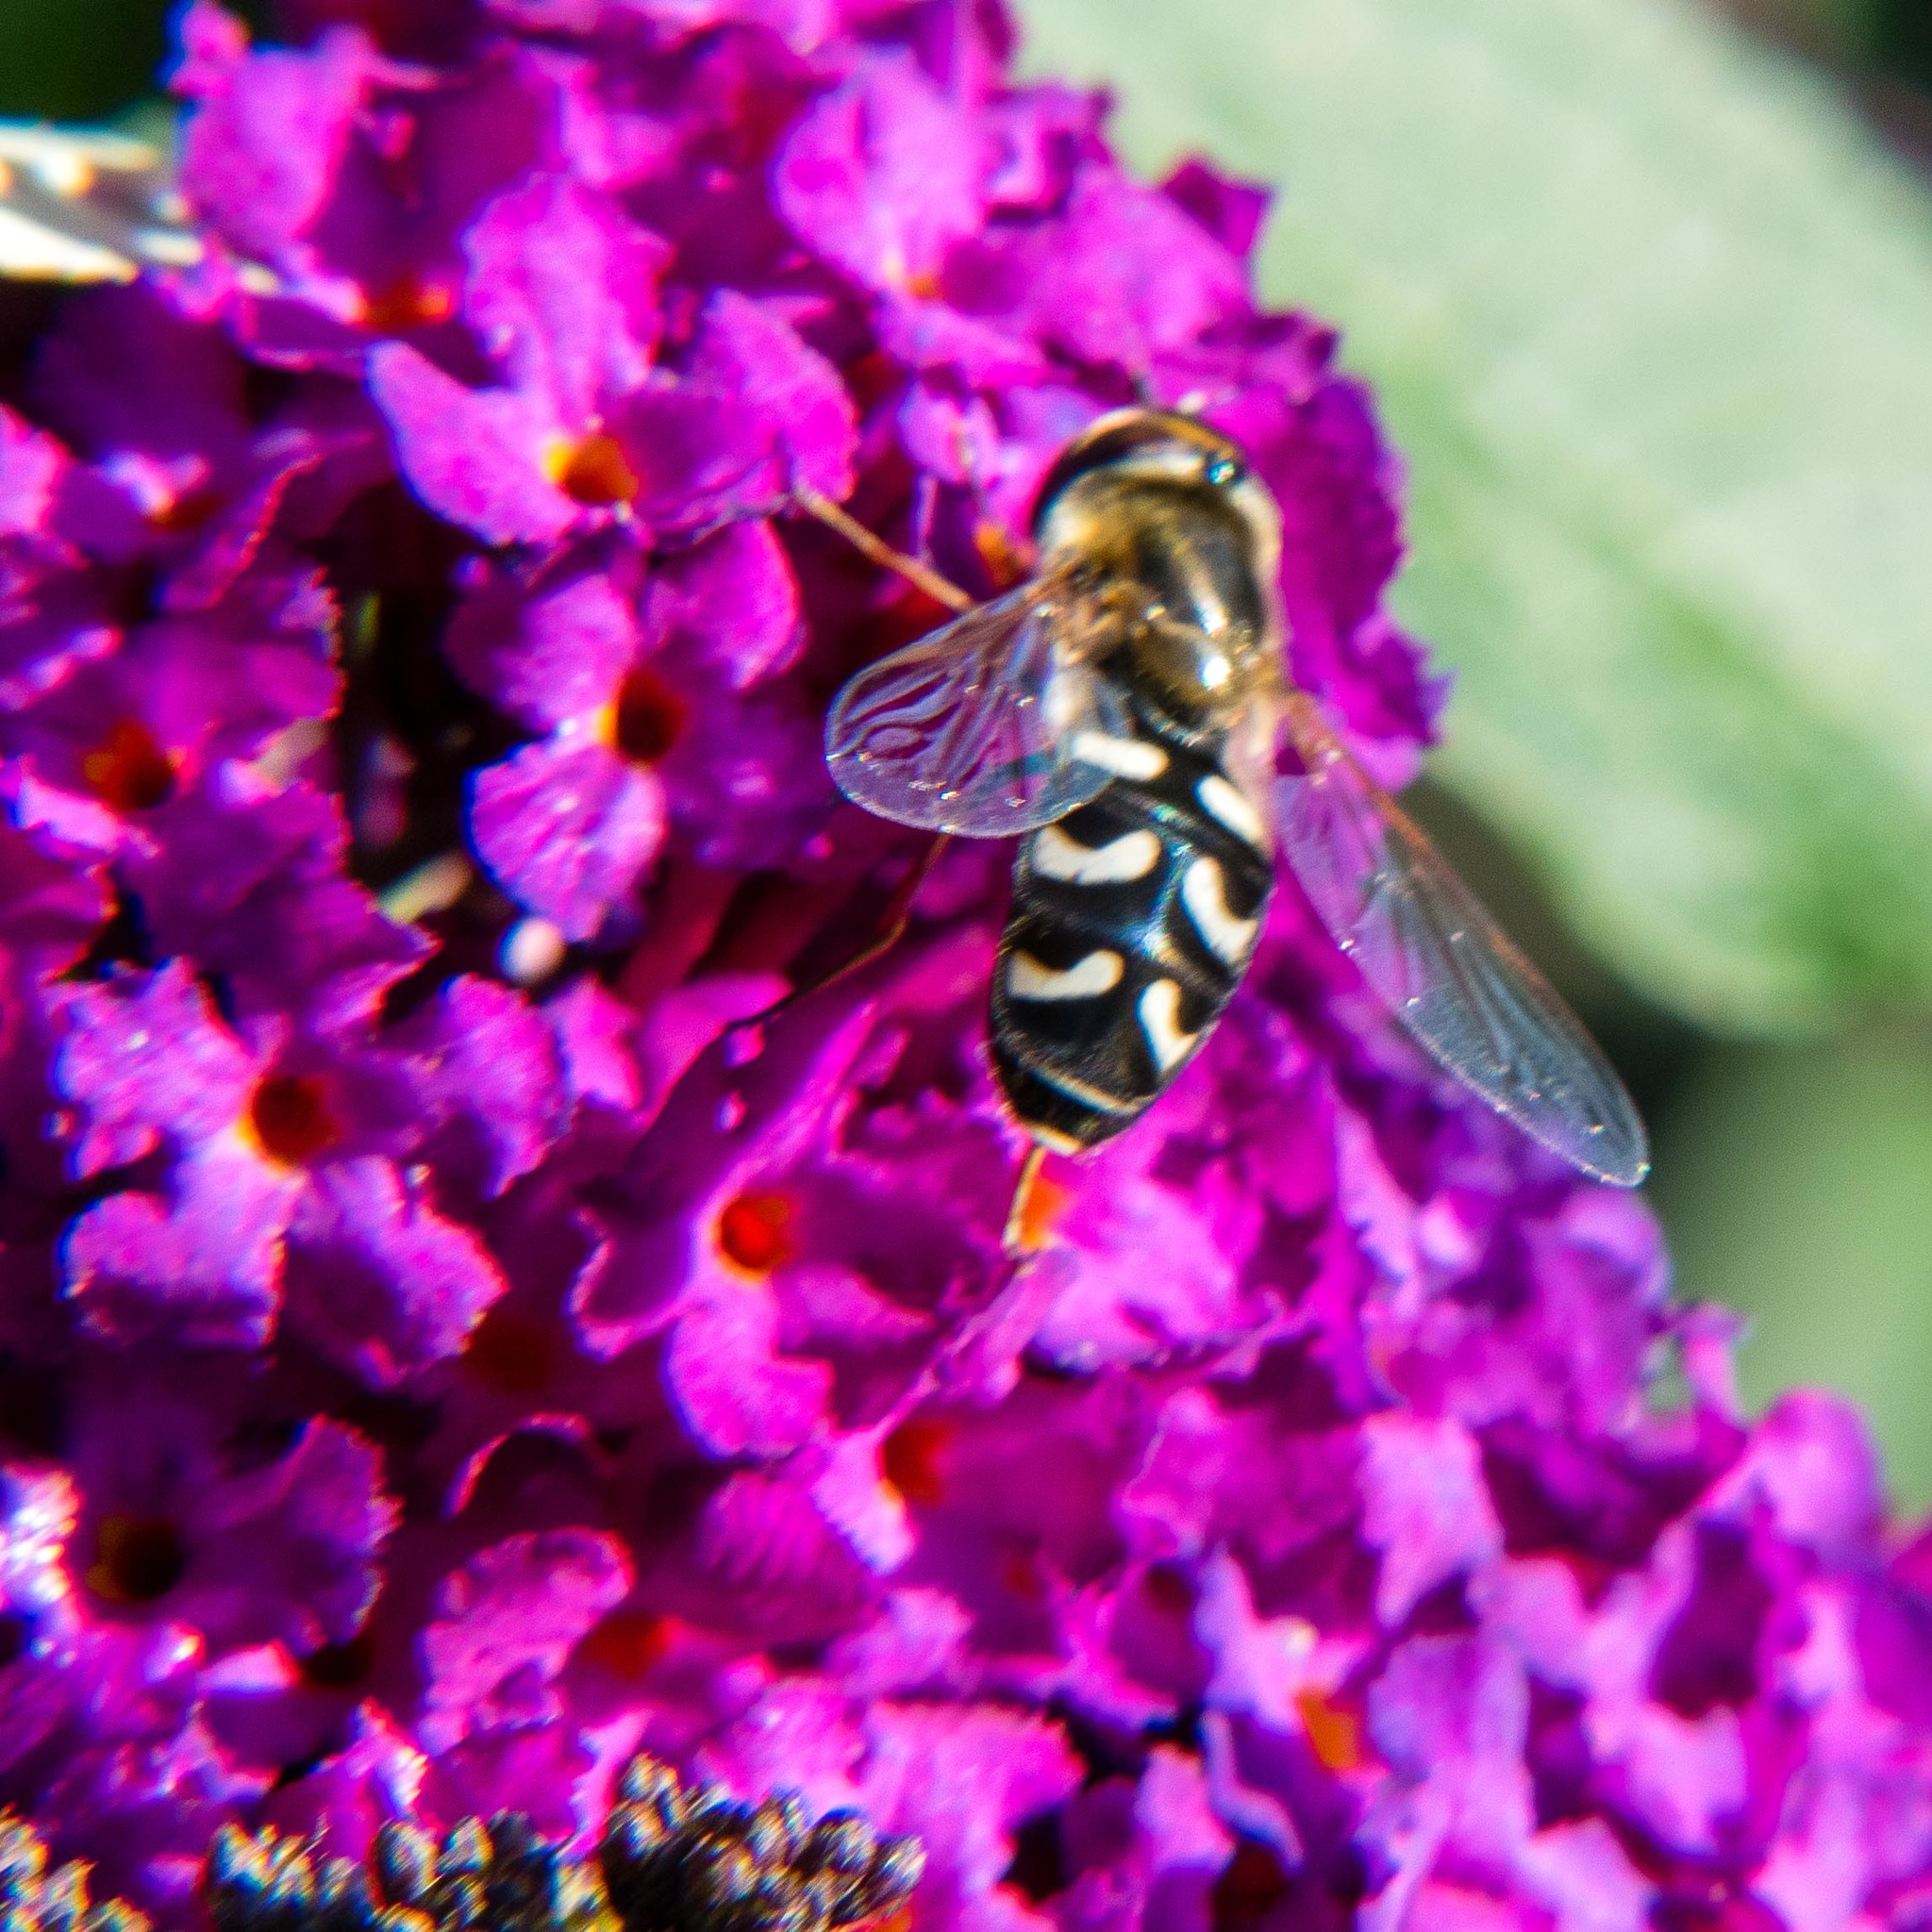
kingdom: Animalia
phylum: Arthropoda
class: Insecta
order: Diptera
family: Syrphidae
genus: Scaeva
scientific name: Scaeva pyrastri
